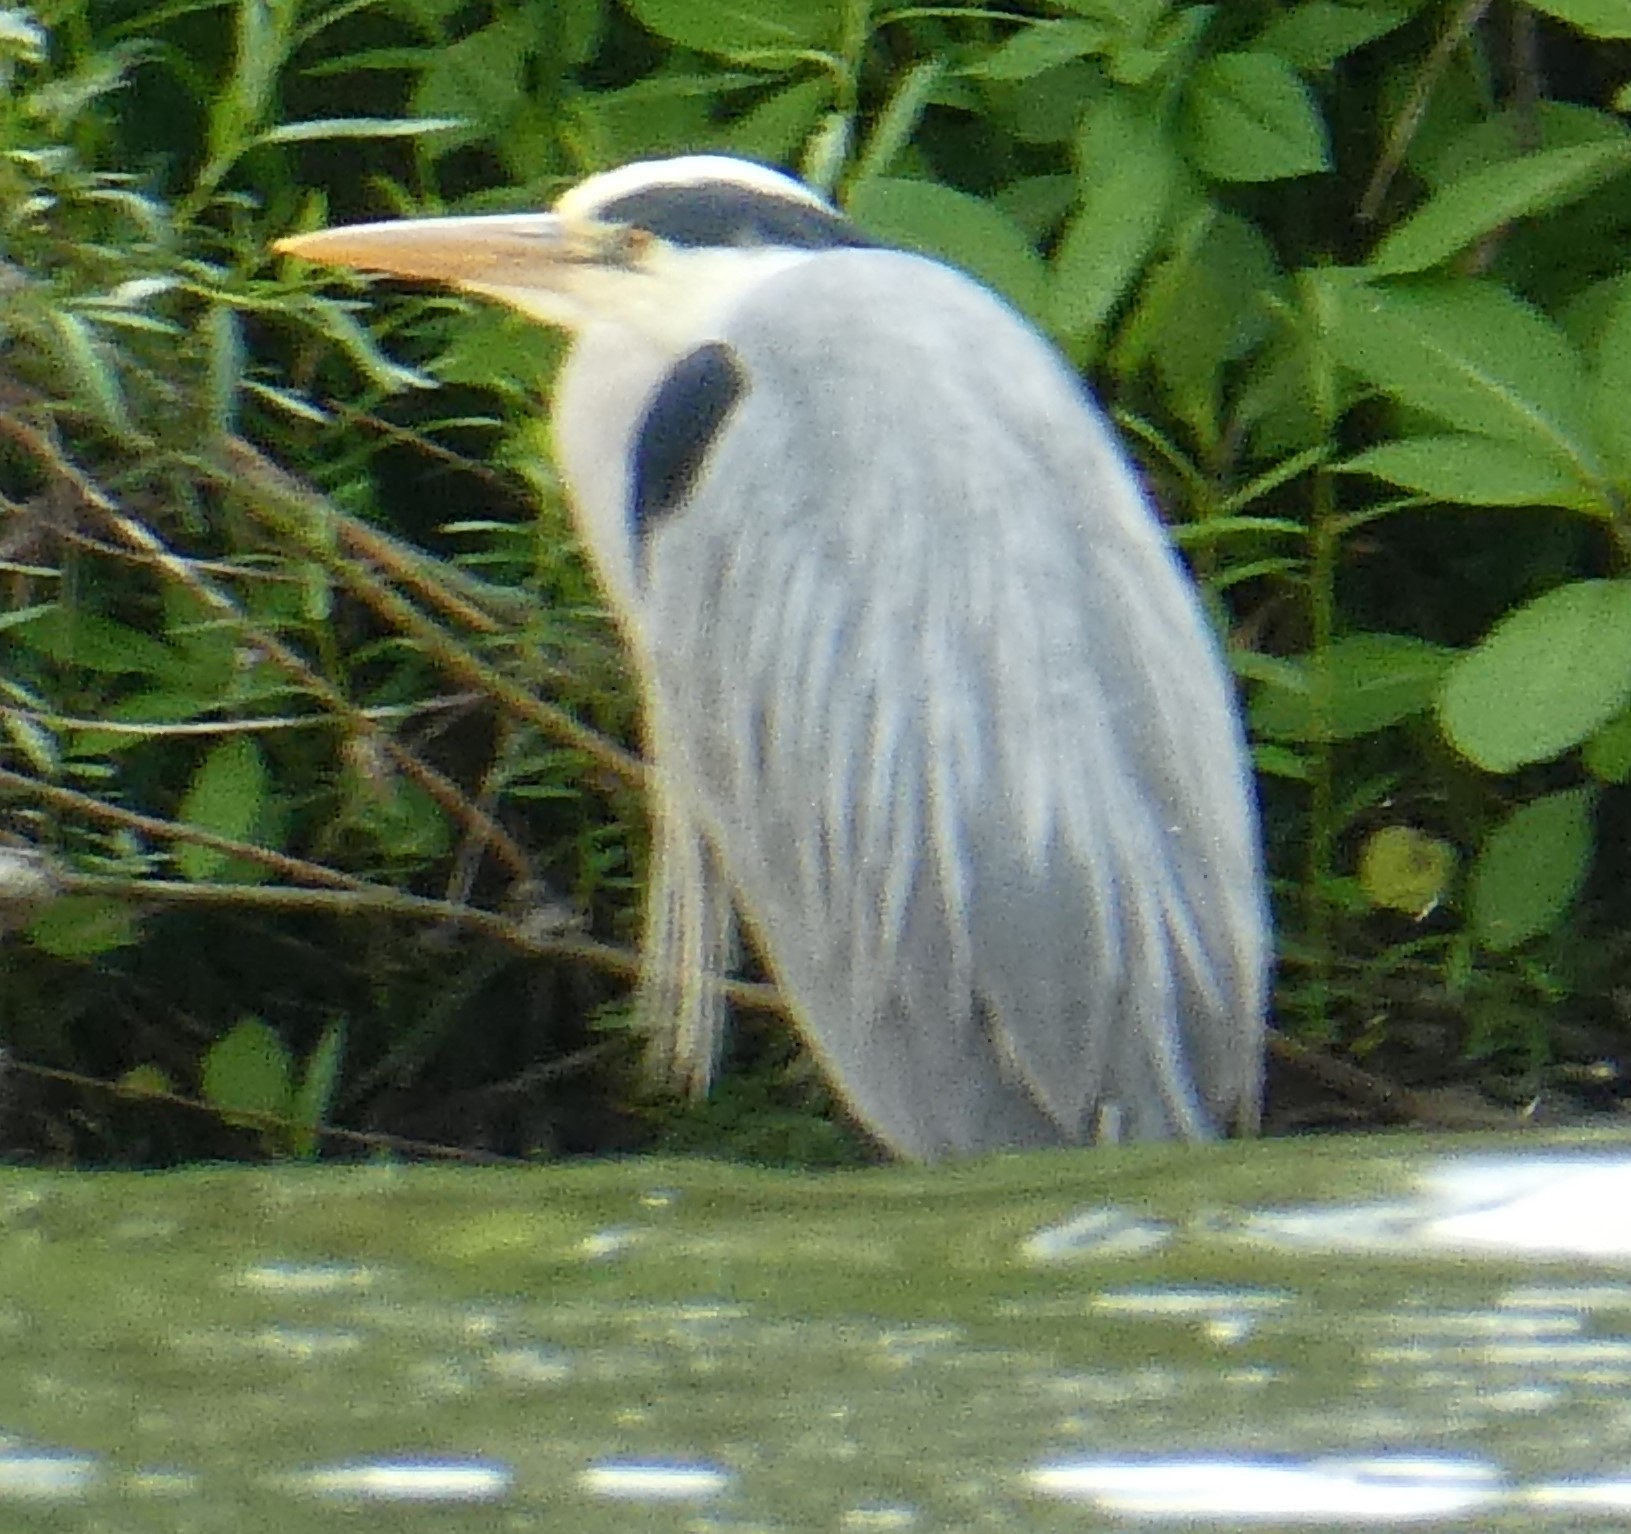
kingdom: Animalia
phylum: Chordata
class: Aves
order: Pelecaniformes
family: Ardeidae
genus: Ardea
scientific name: Ardea cinerea
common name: Grey heron
